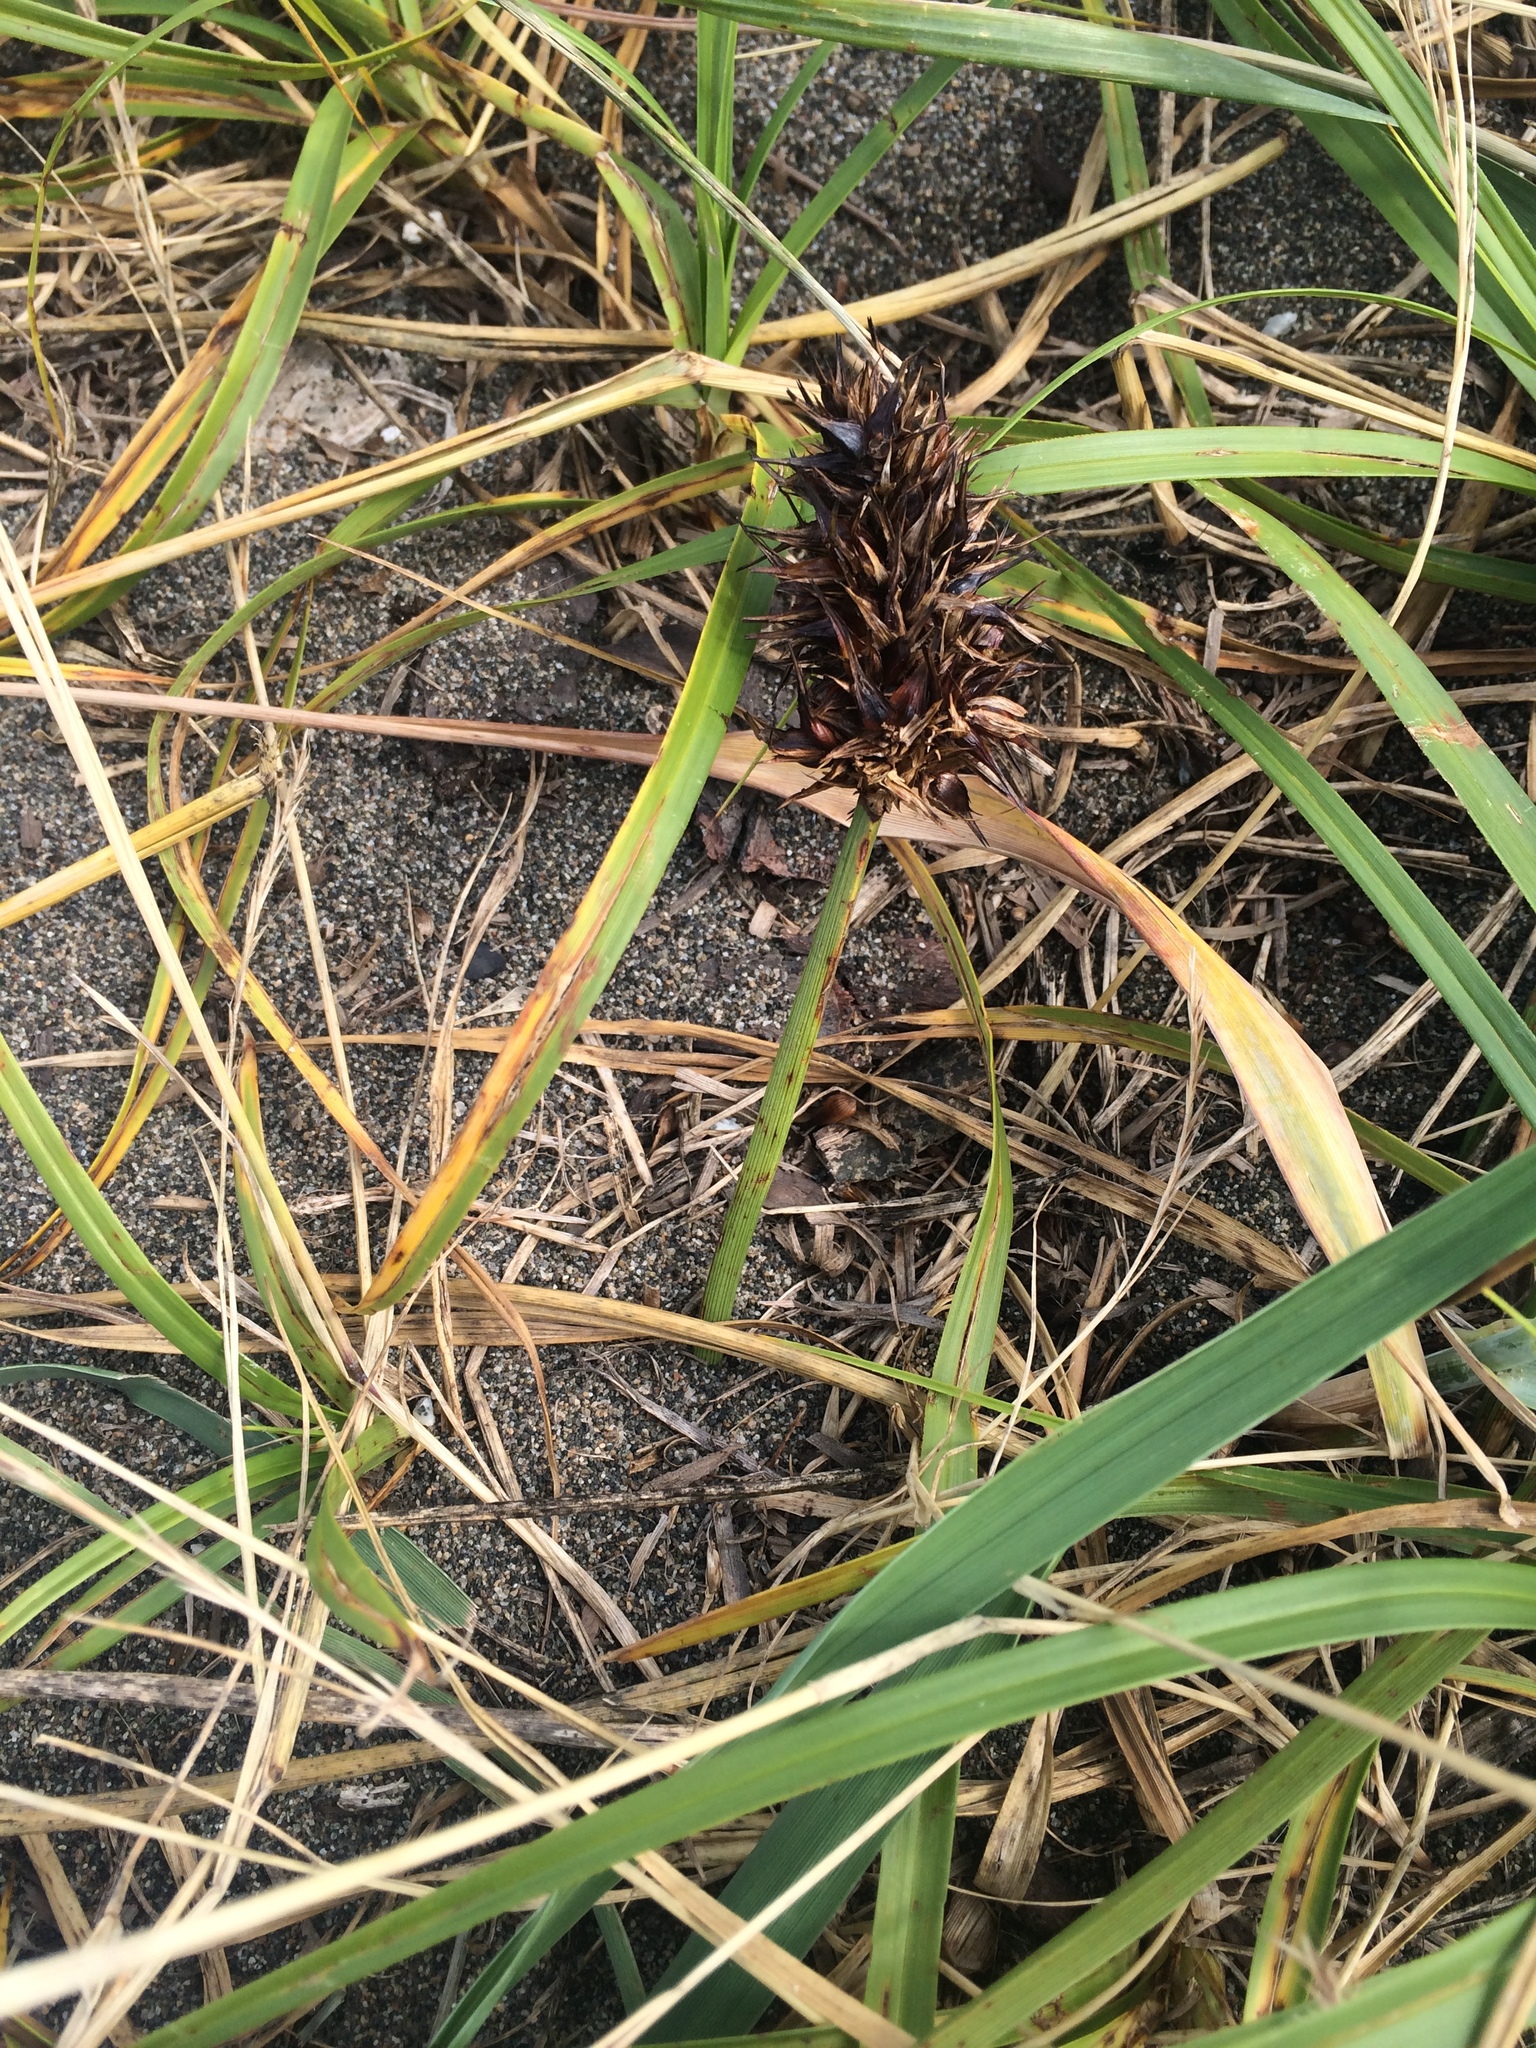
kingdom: Plantae
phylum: Tracheophyta
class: Liliopsida
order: Poales
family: Cyperaceae
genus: Carex
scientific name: Carex macrocephala
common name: Large-head sedge
